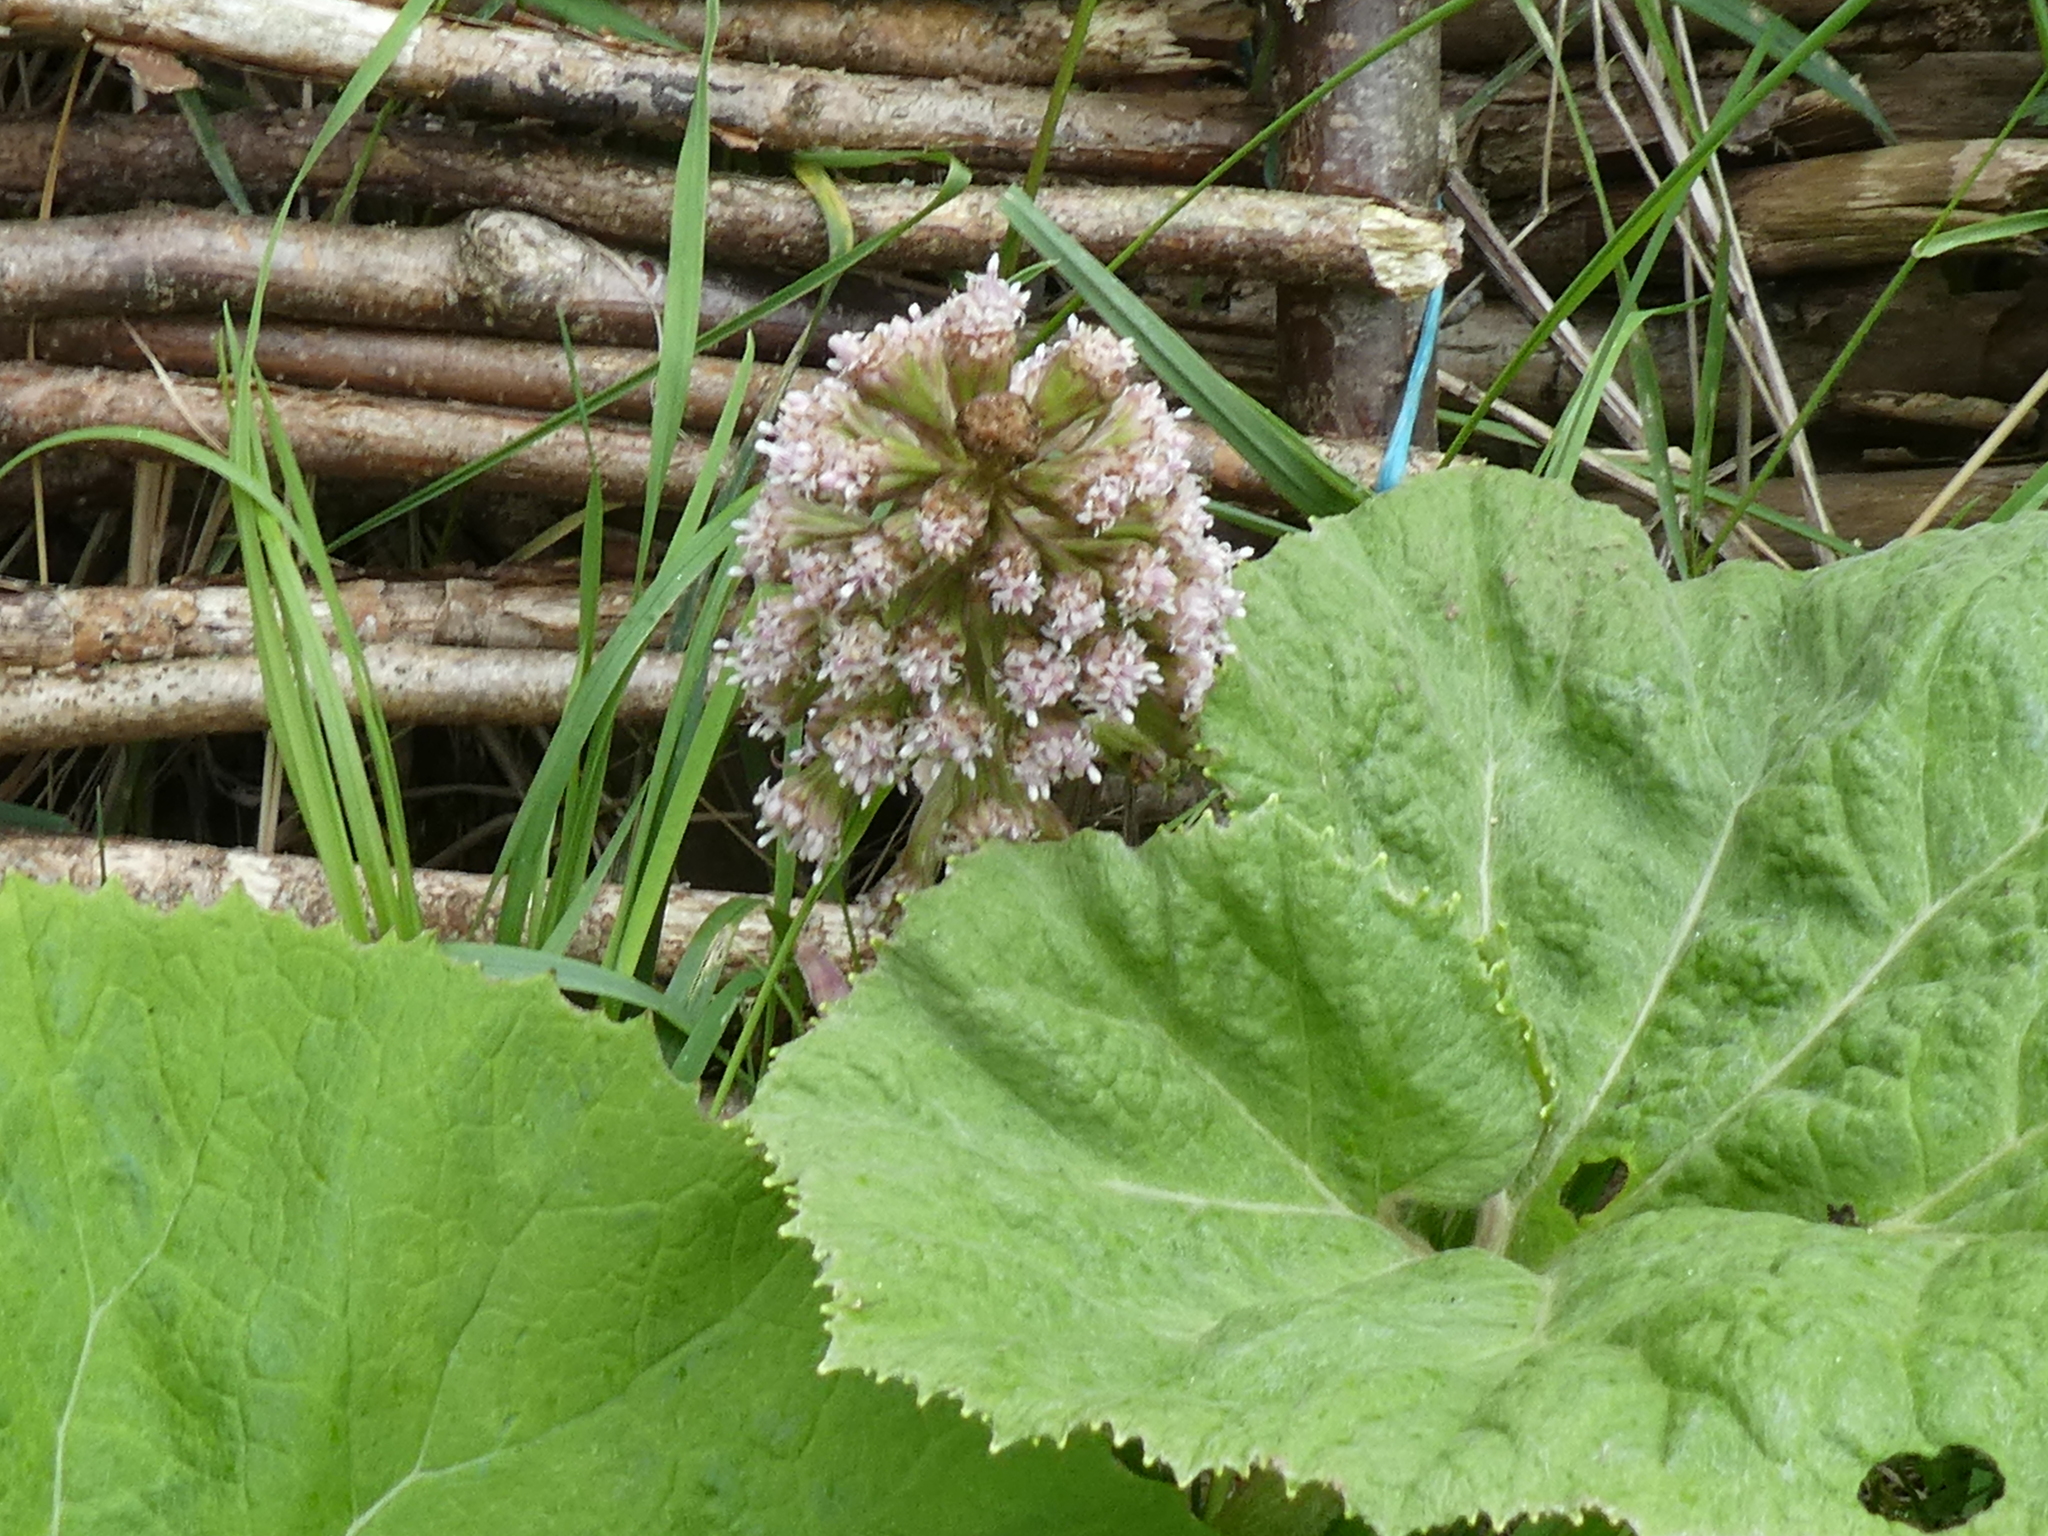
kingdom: Plantae
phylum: Tracheophyta
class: Magnoliopsida
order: Asterales
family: Asteraceae
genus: Petasites
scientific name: Petasites hybridus
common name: Butterbur
